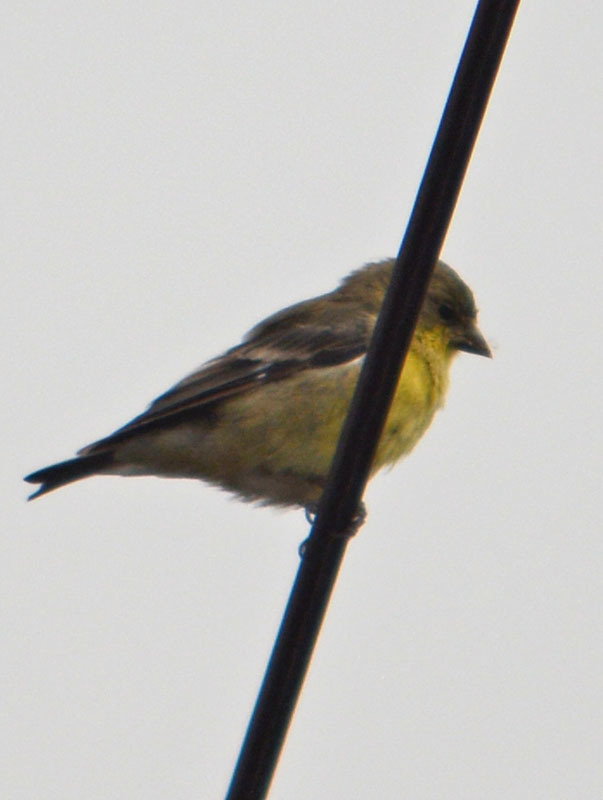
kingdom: Animalia
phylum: Chordata
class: Aves
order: Passeriformes
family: Fringillidae
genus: Spinus
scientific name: Spinus psaltria
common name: Lesser goldfinch
